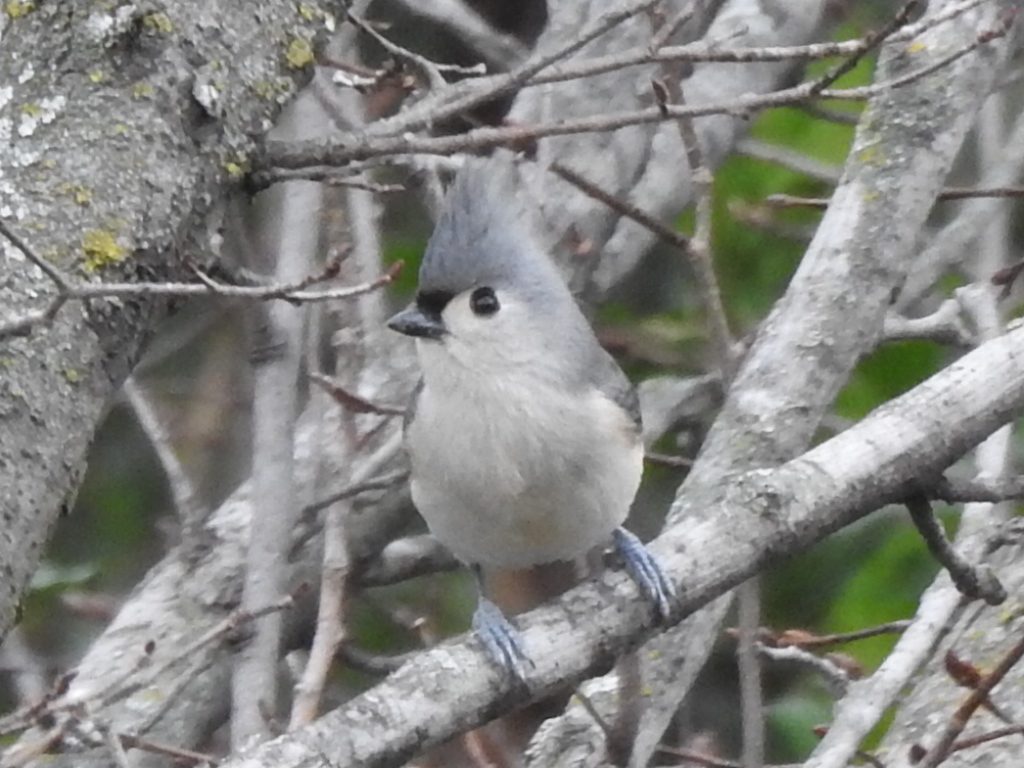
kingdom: Animalia
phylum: Chordata
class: Aves
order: Passeriformes
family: Paridae
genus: Baeolophus
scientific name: Baeolophus bicolor
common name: Tufted titmouse
